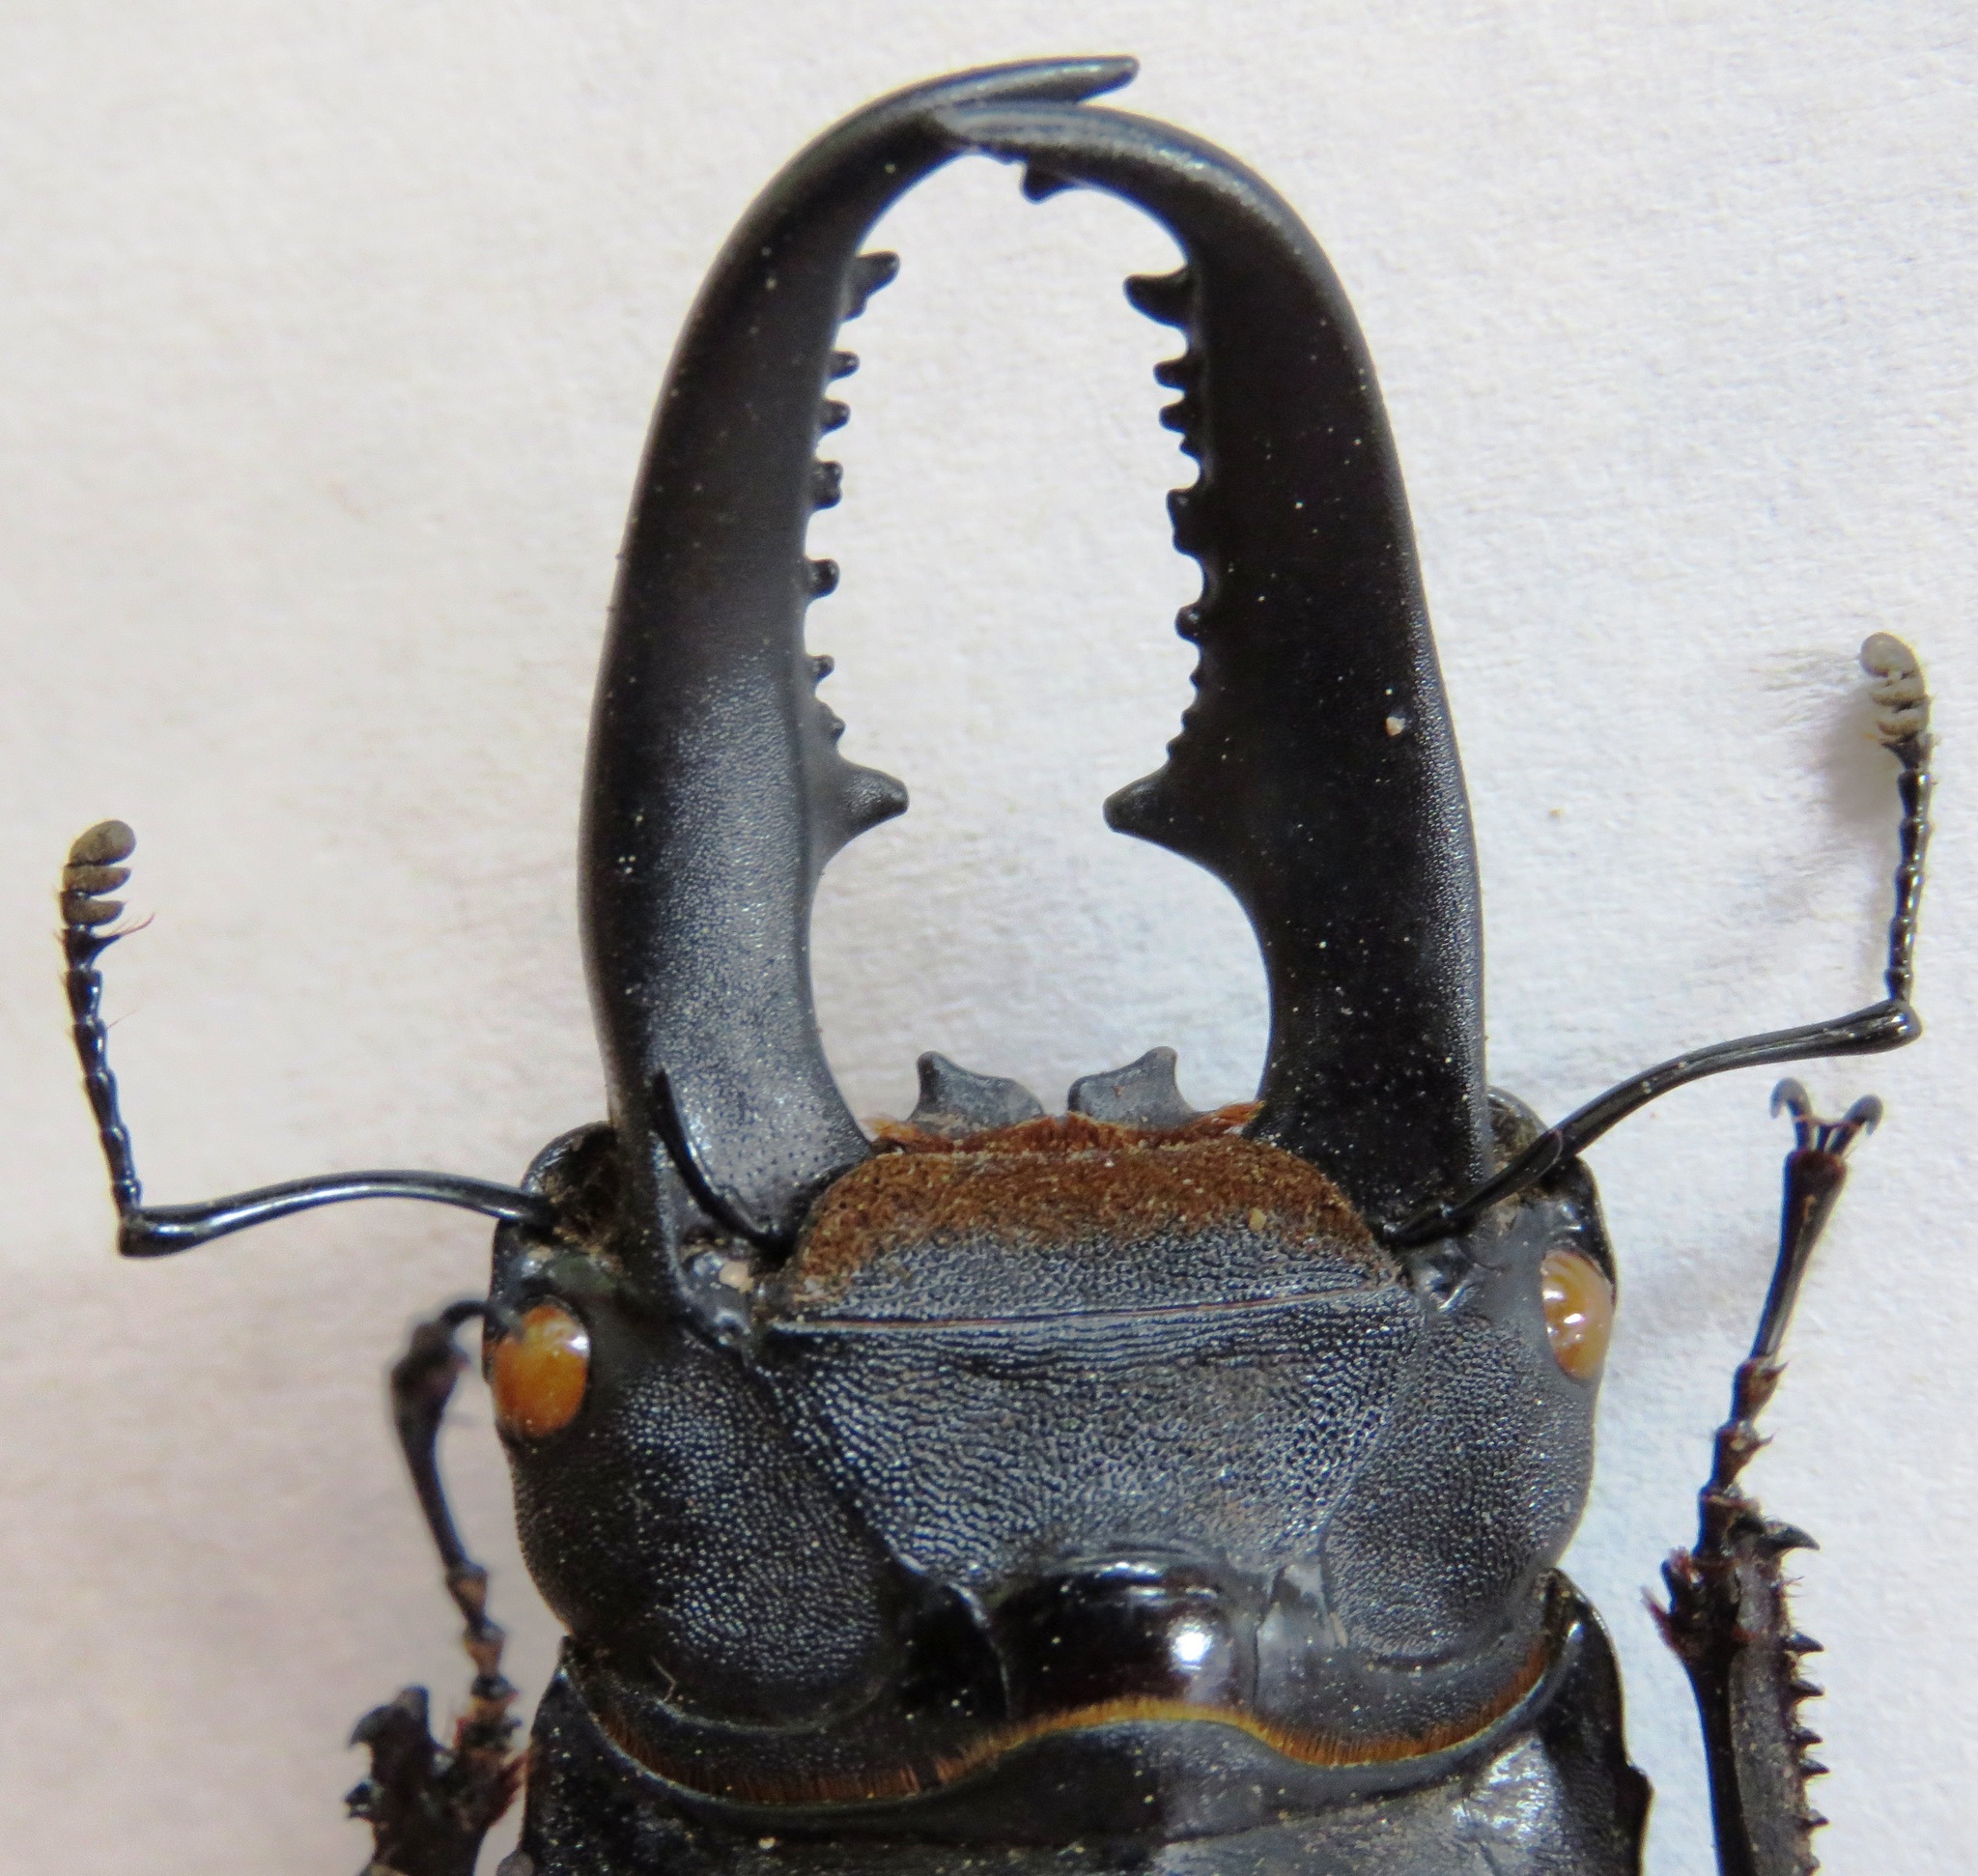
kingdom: Animalia
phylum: Arthropoda
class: Insecta
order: Coleoptera
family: Lucanidae
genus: Serrognathus
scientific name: Serrognathus titanus
